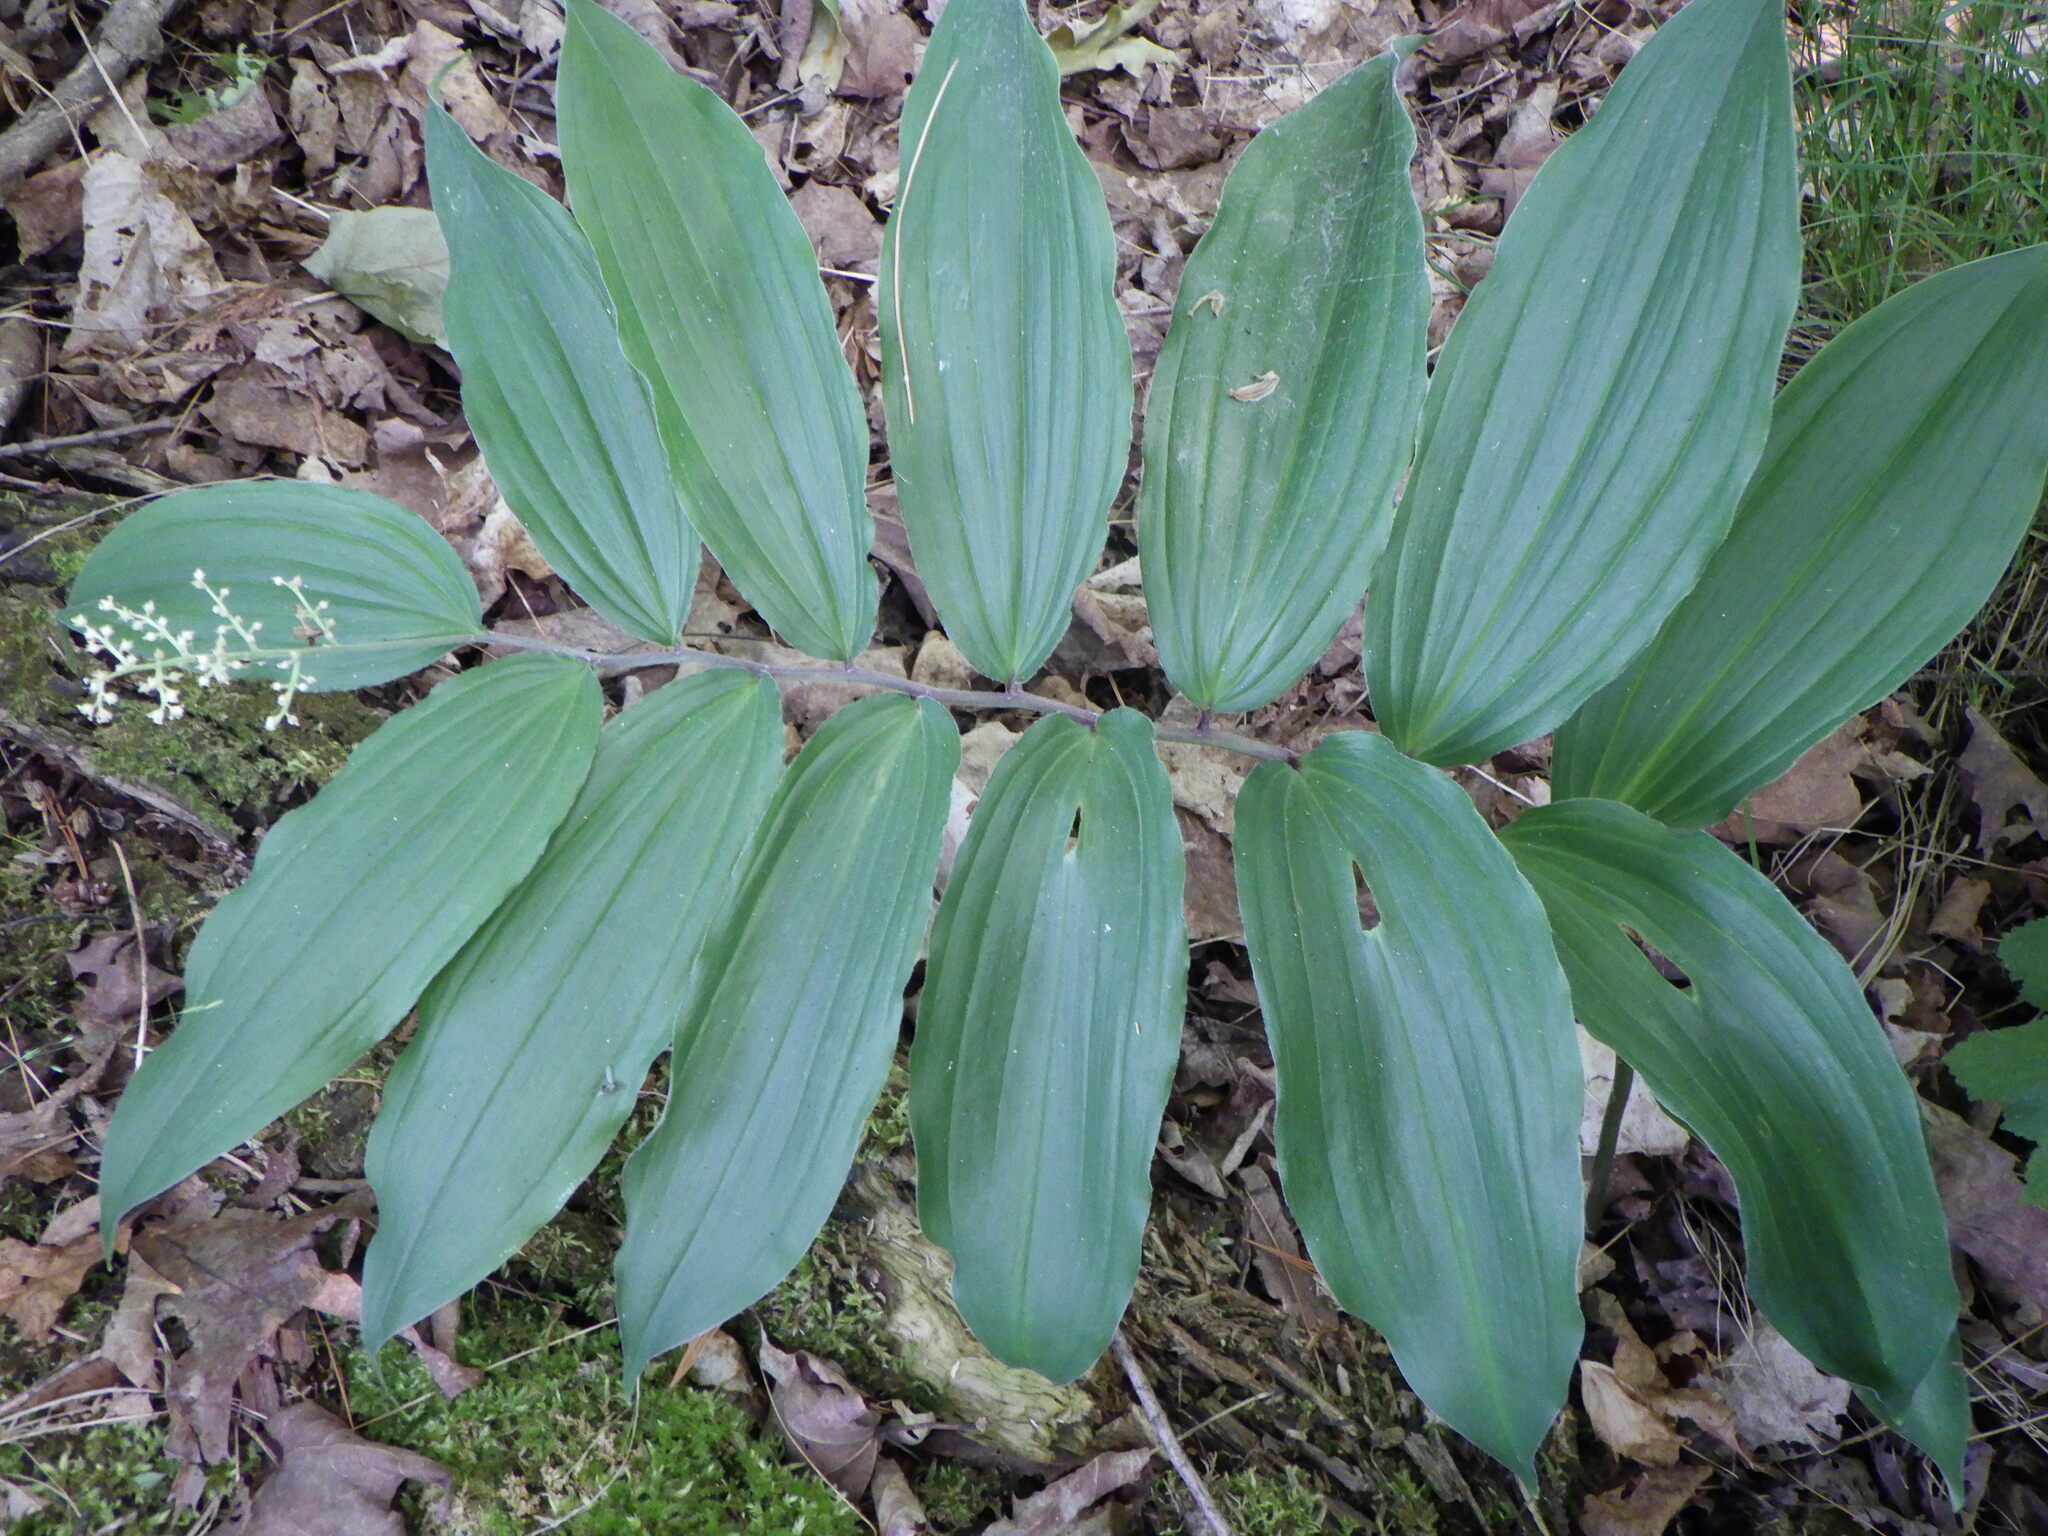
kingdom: Plantae
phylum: Tracheophyta
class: Liliopsida
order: Asparagales
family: Asparagaceae
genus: Maianthemum
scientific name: Maianthemum racemosum
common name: False spikenard
